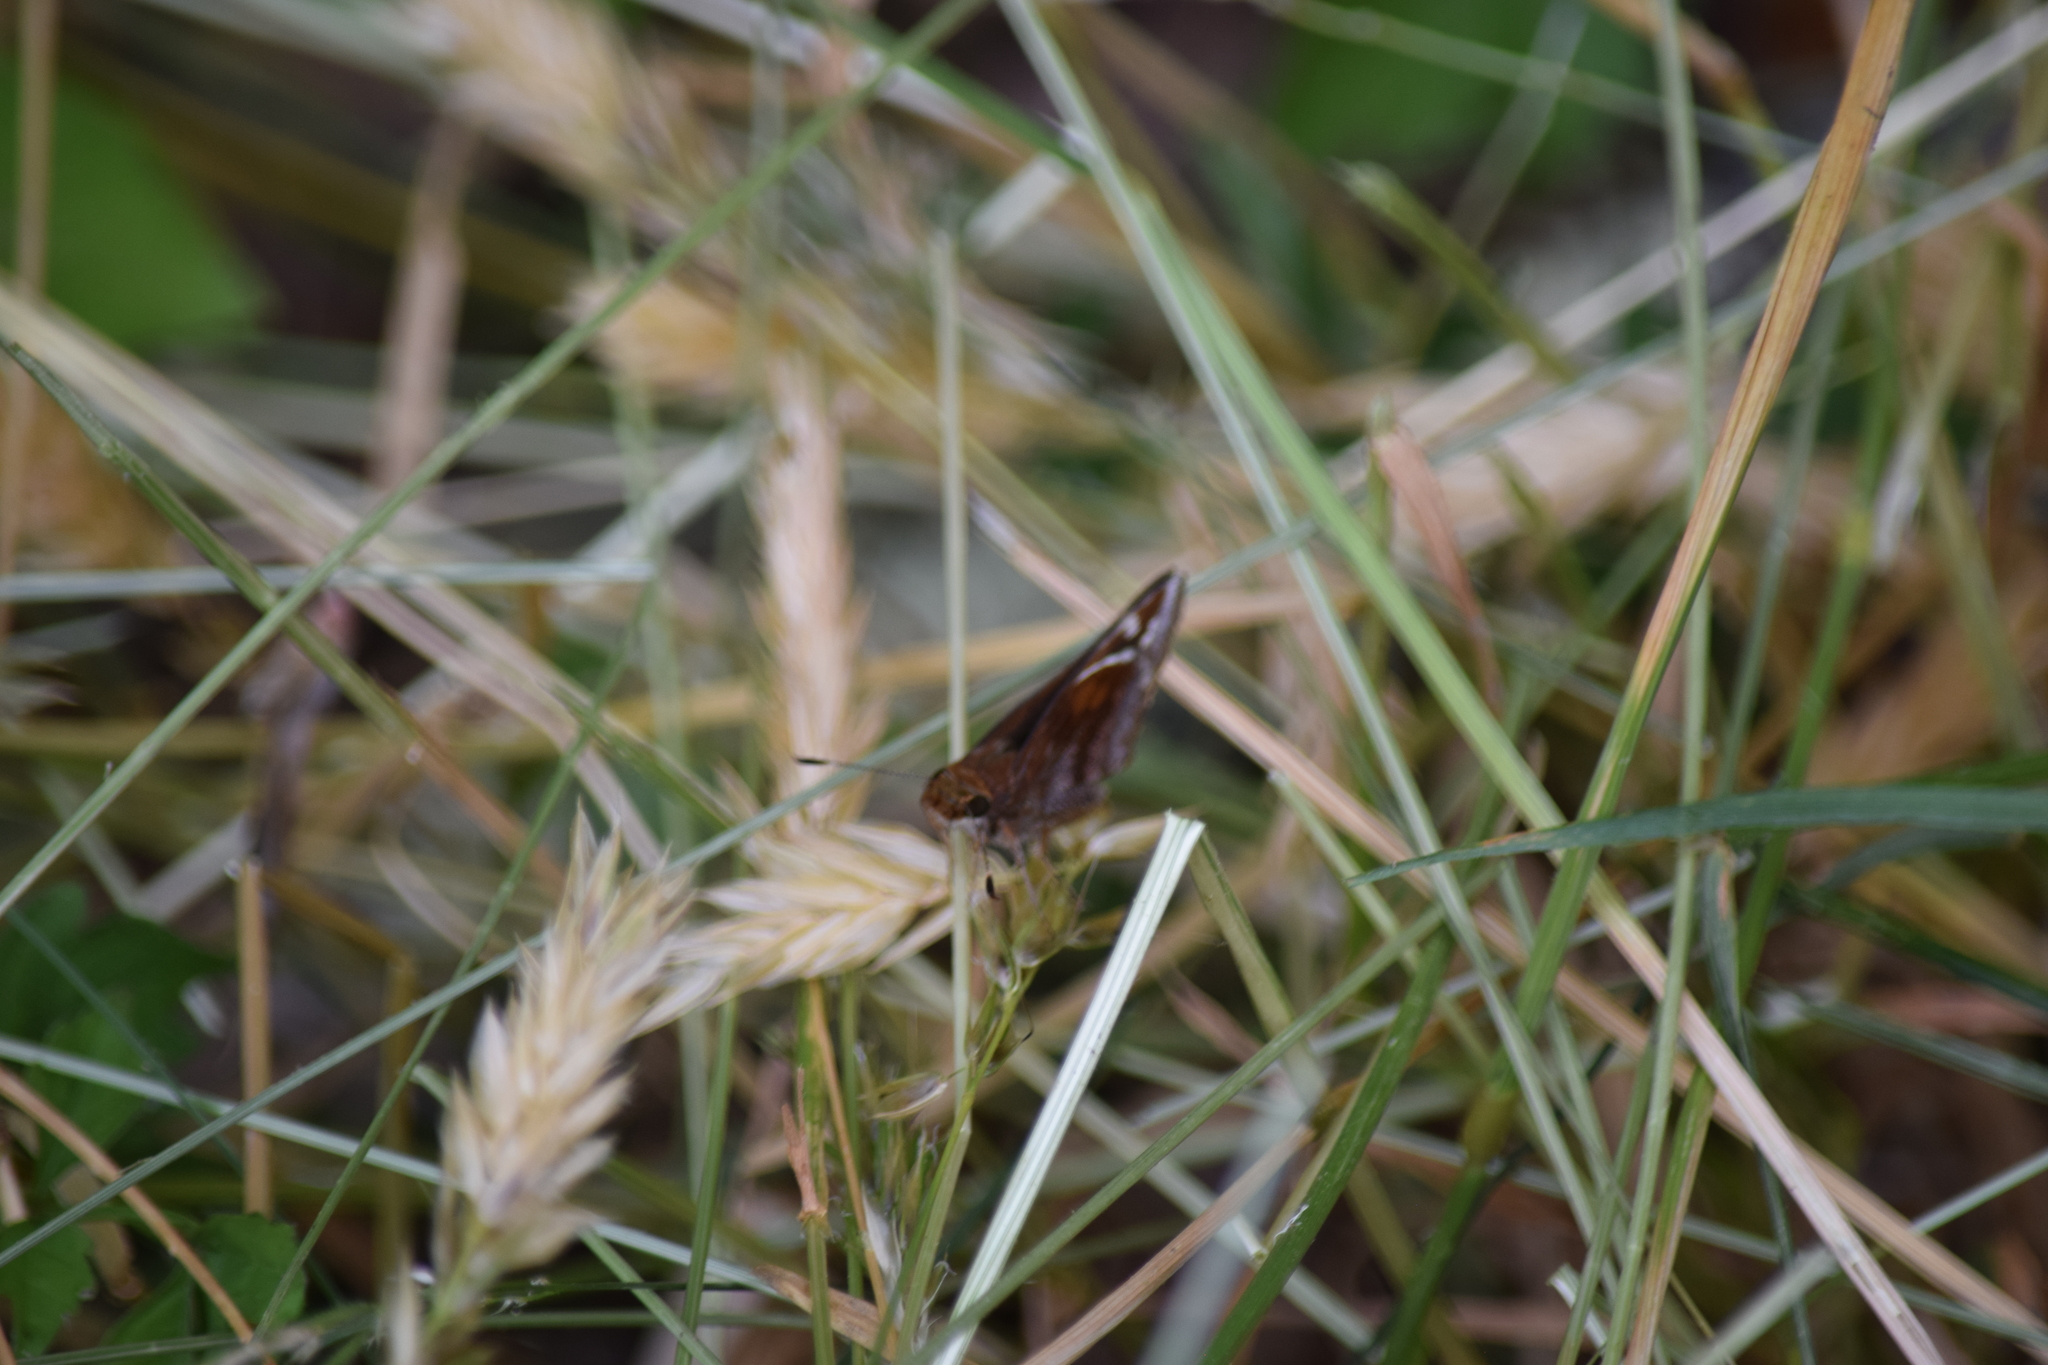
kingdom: Animalia
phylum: Arthropoda
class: Insecta
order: Lepidoptera
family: Hesperiidae
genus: Lon
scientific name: Lon zabulon
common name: Zabulon skipper
